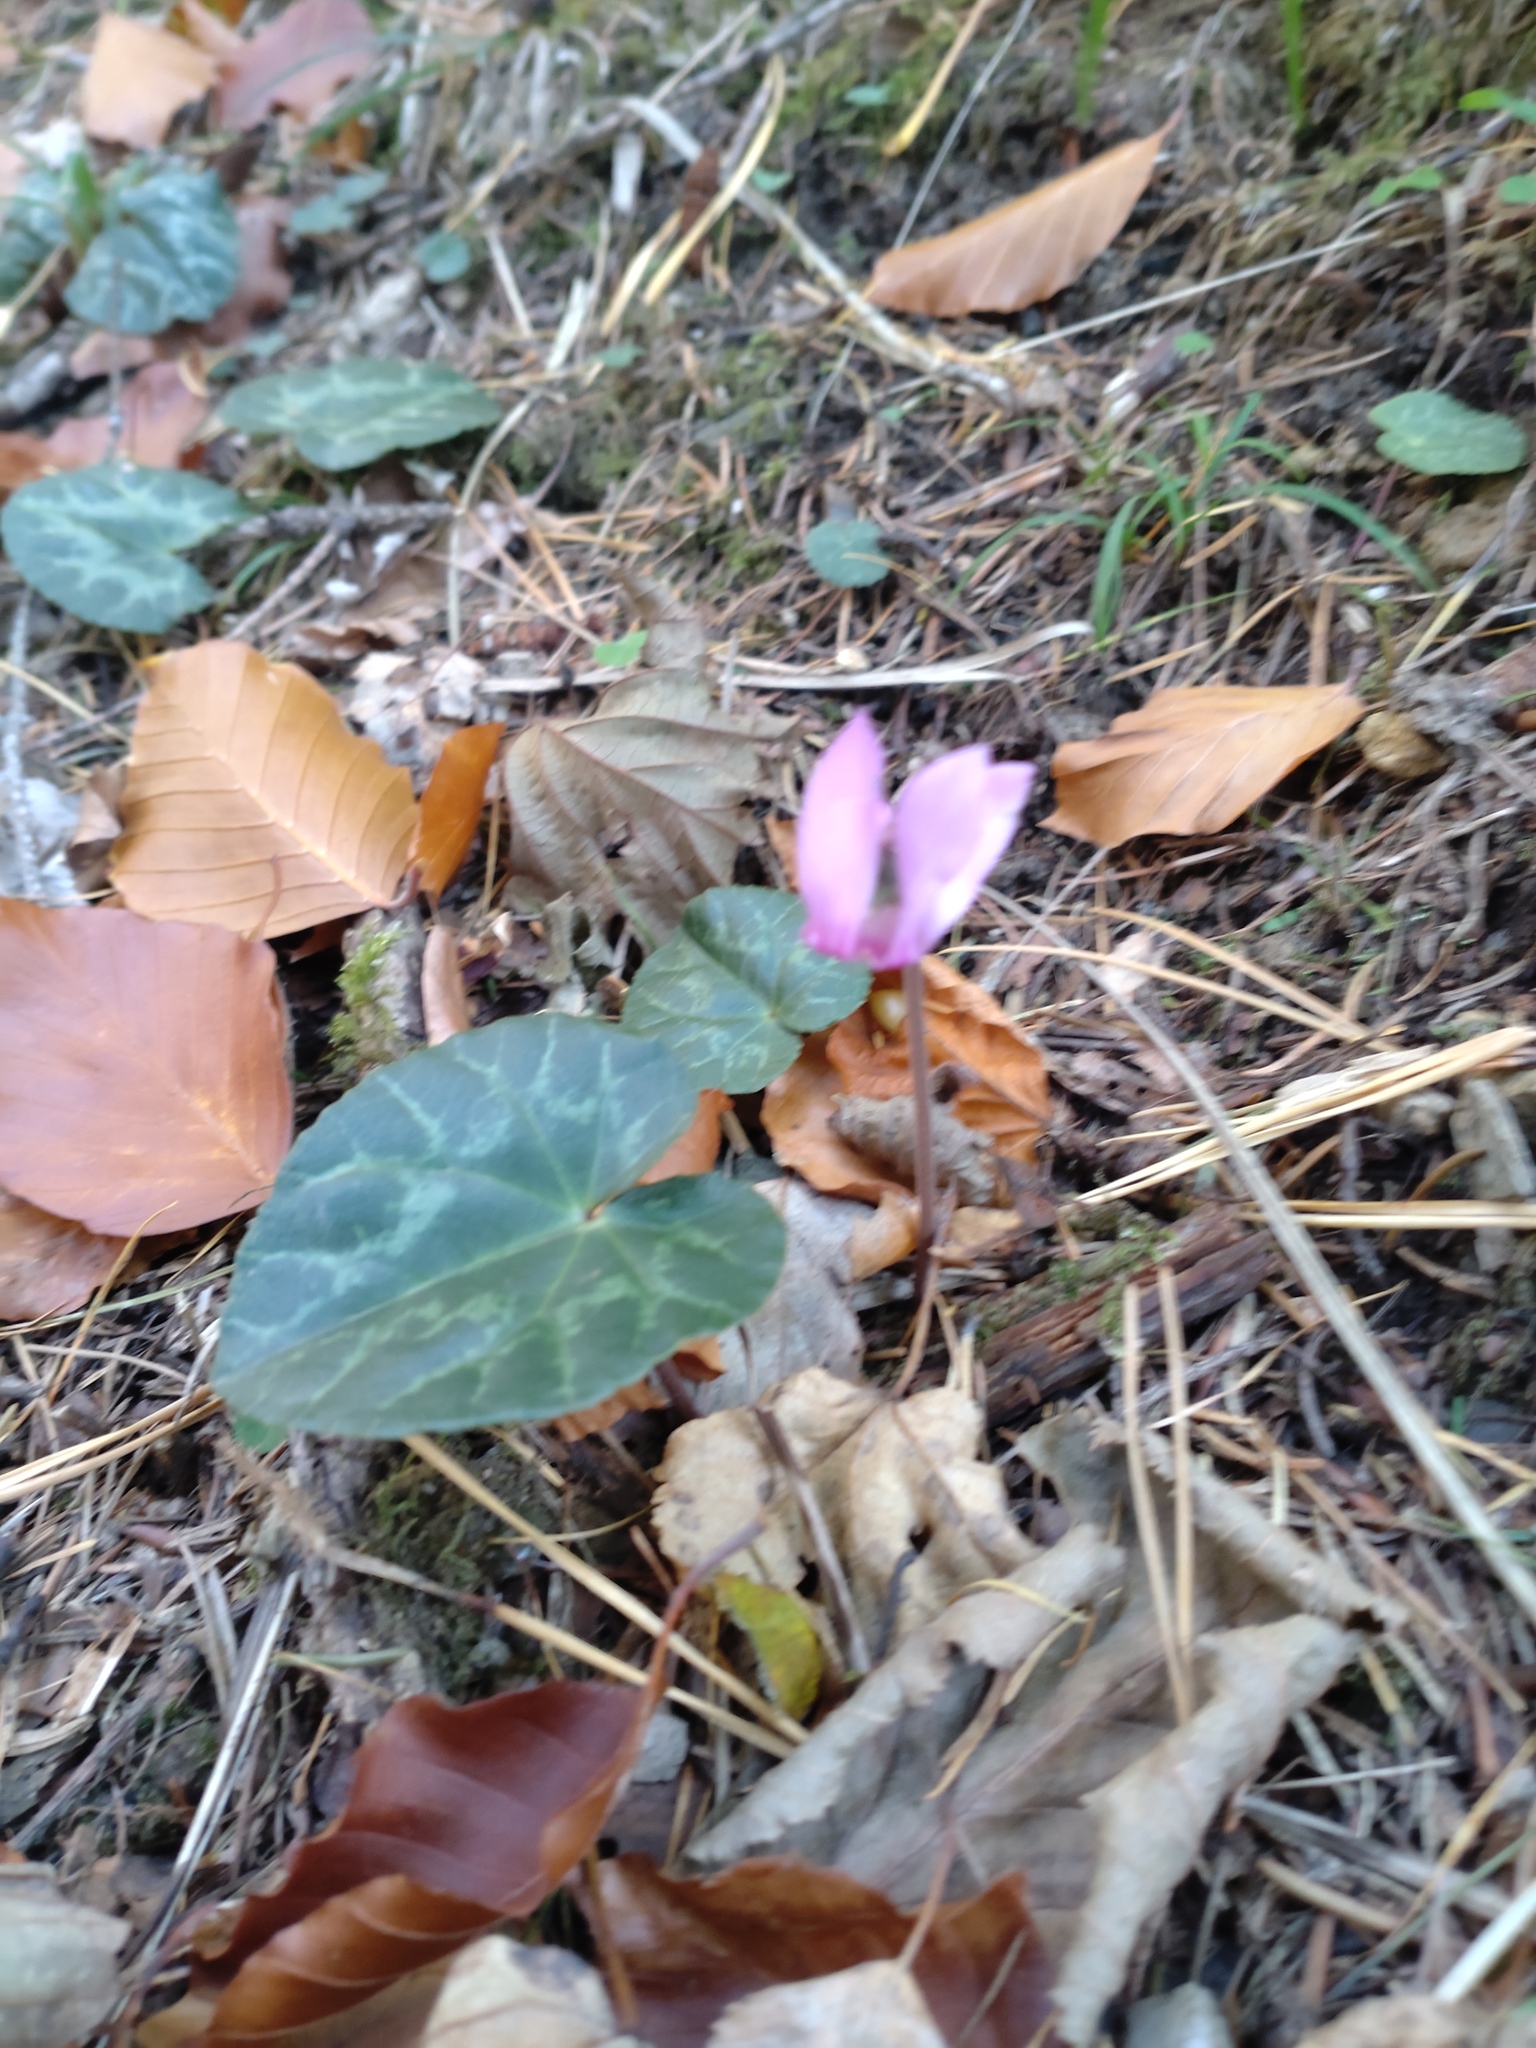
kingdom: Plantae
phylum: Tracheophyta
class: Magnoliopsida
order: Ericales
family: Primulaceae
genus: Cyclamen
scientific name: Cyclamen purpurascens
